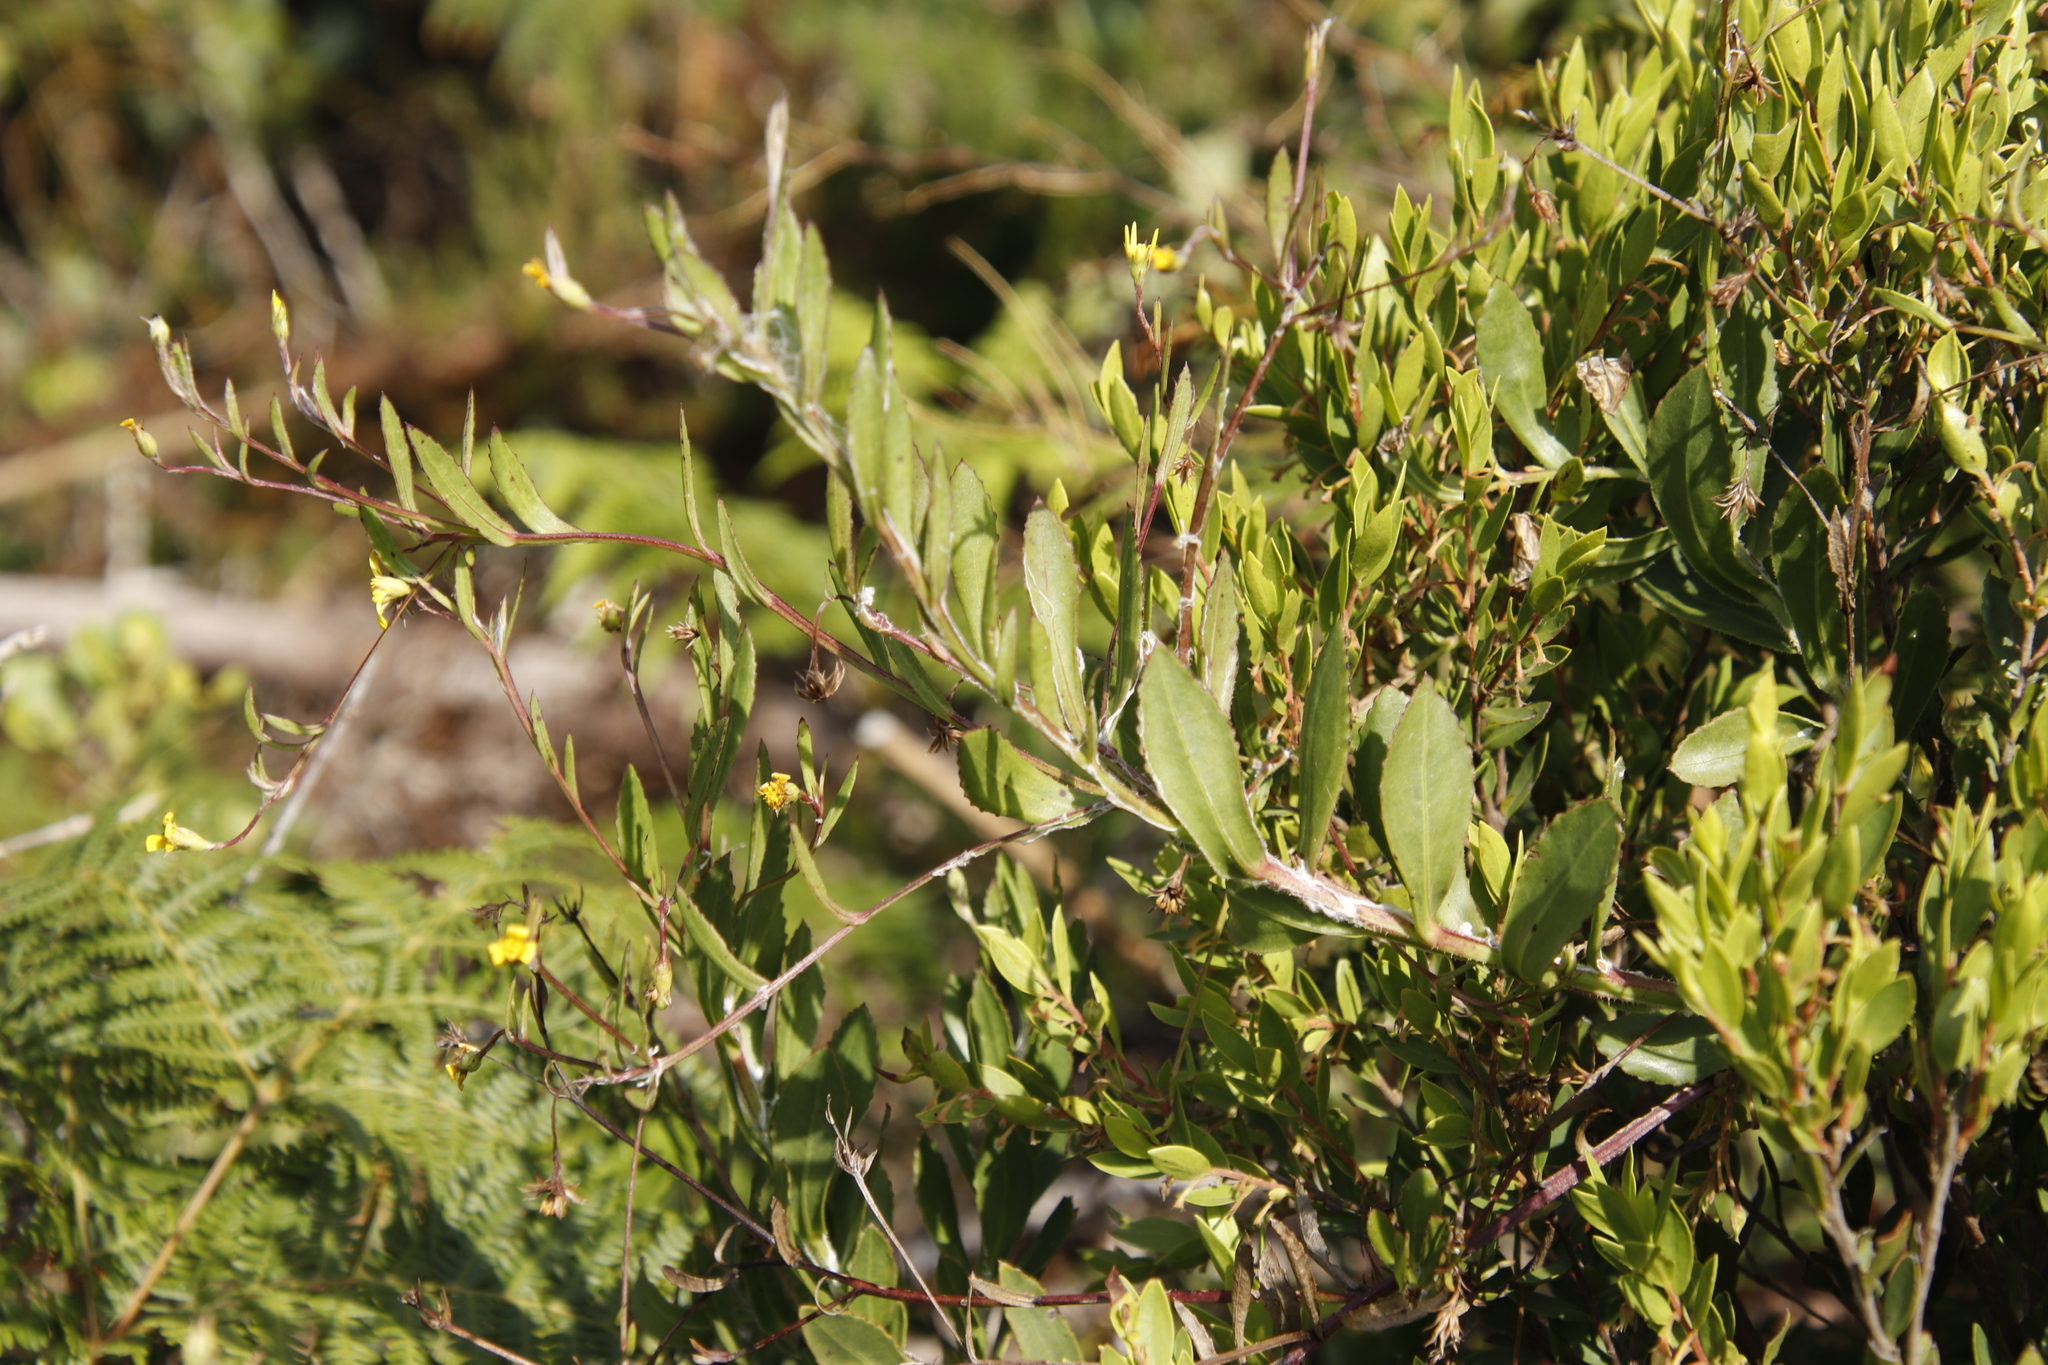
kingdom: Plantae
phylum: Tracheophyta
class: Magnoliopsida
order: Asterales
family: Asteraceae
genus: Osteospermum
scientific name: Osteospermum ciliatum
